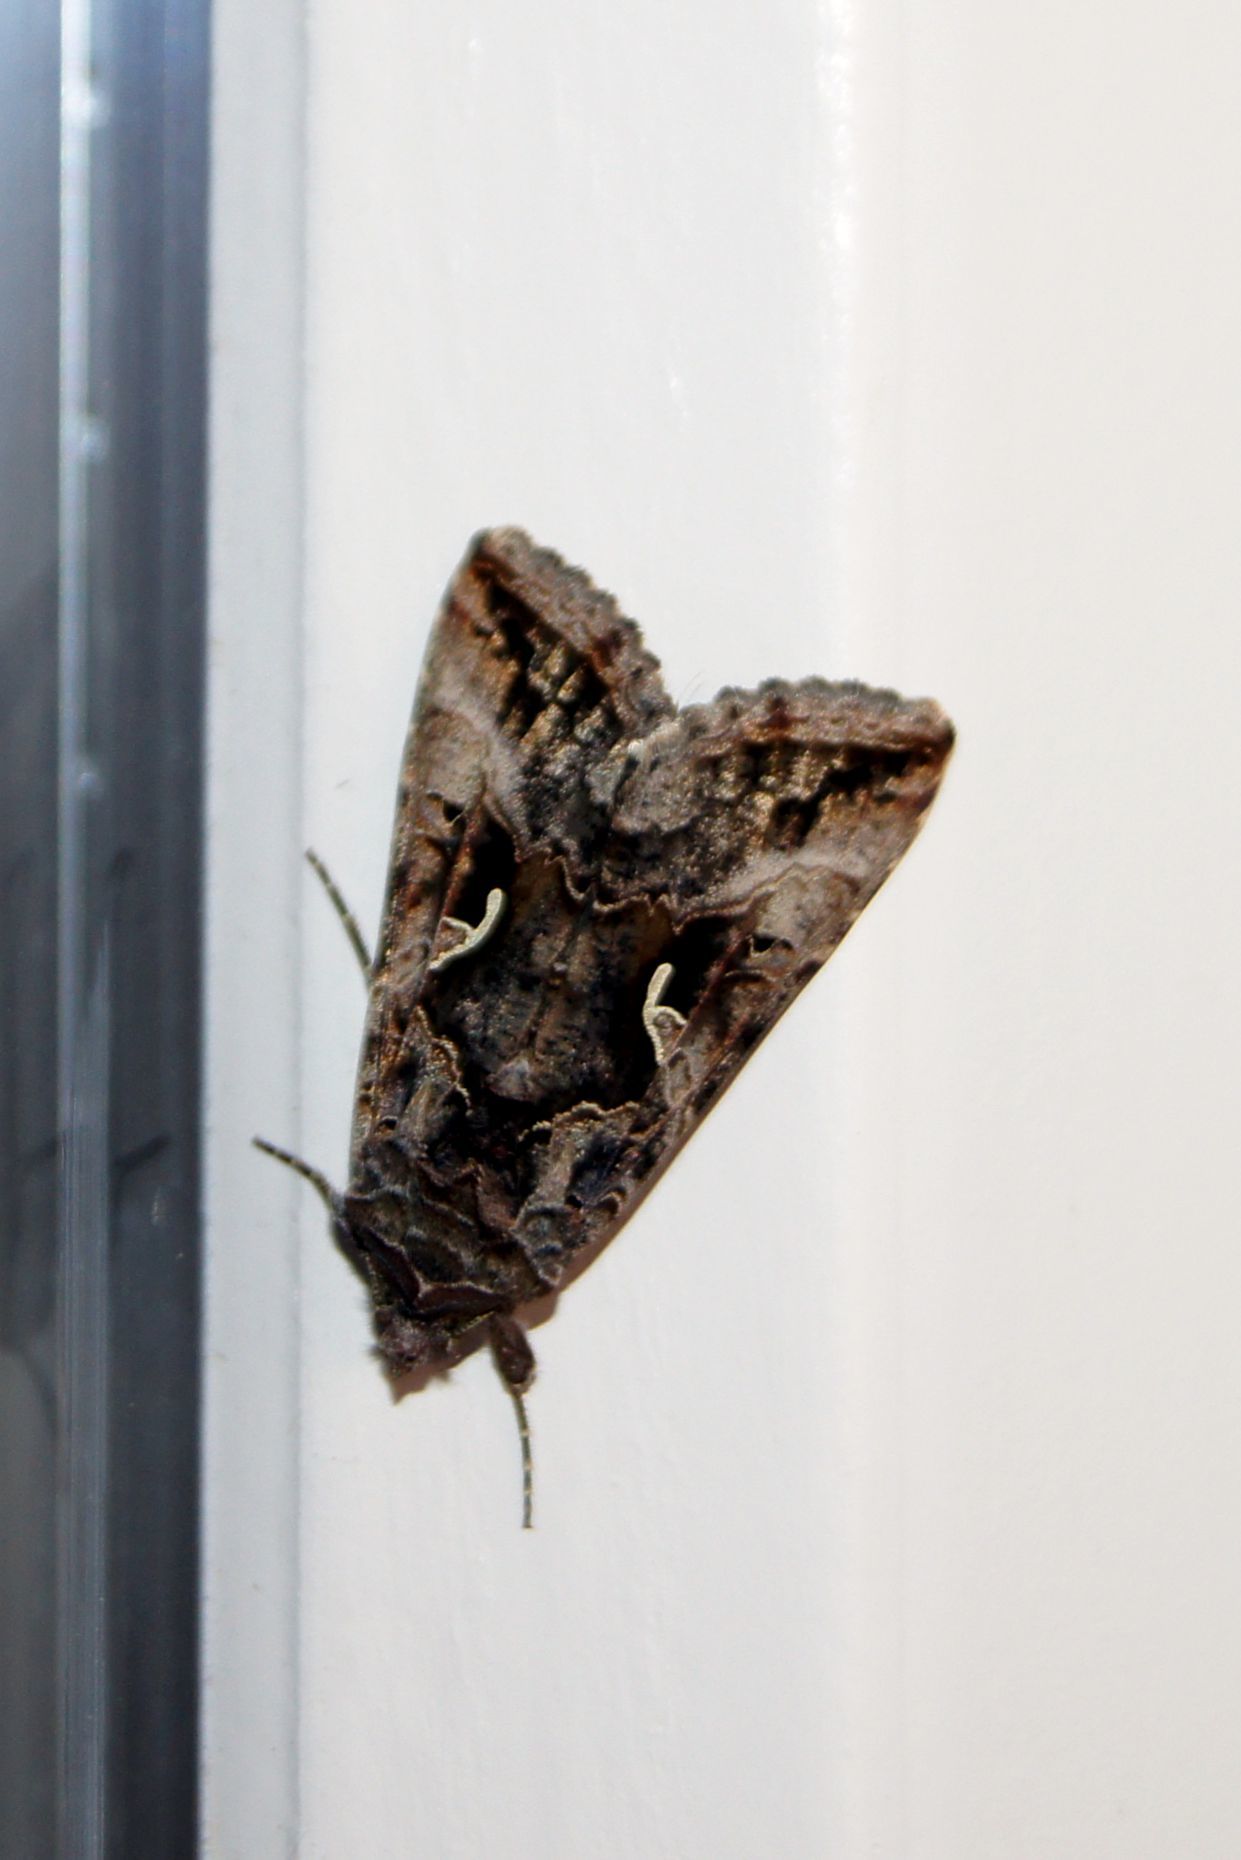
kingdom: Animalia
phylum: Arthropoda
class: Insecta
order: Lepidoptera
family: Noctuidae
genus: Autographa
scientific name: Autographa gamma
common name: Silver y
